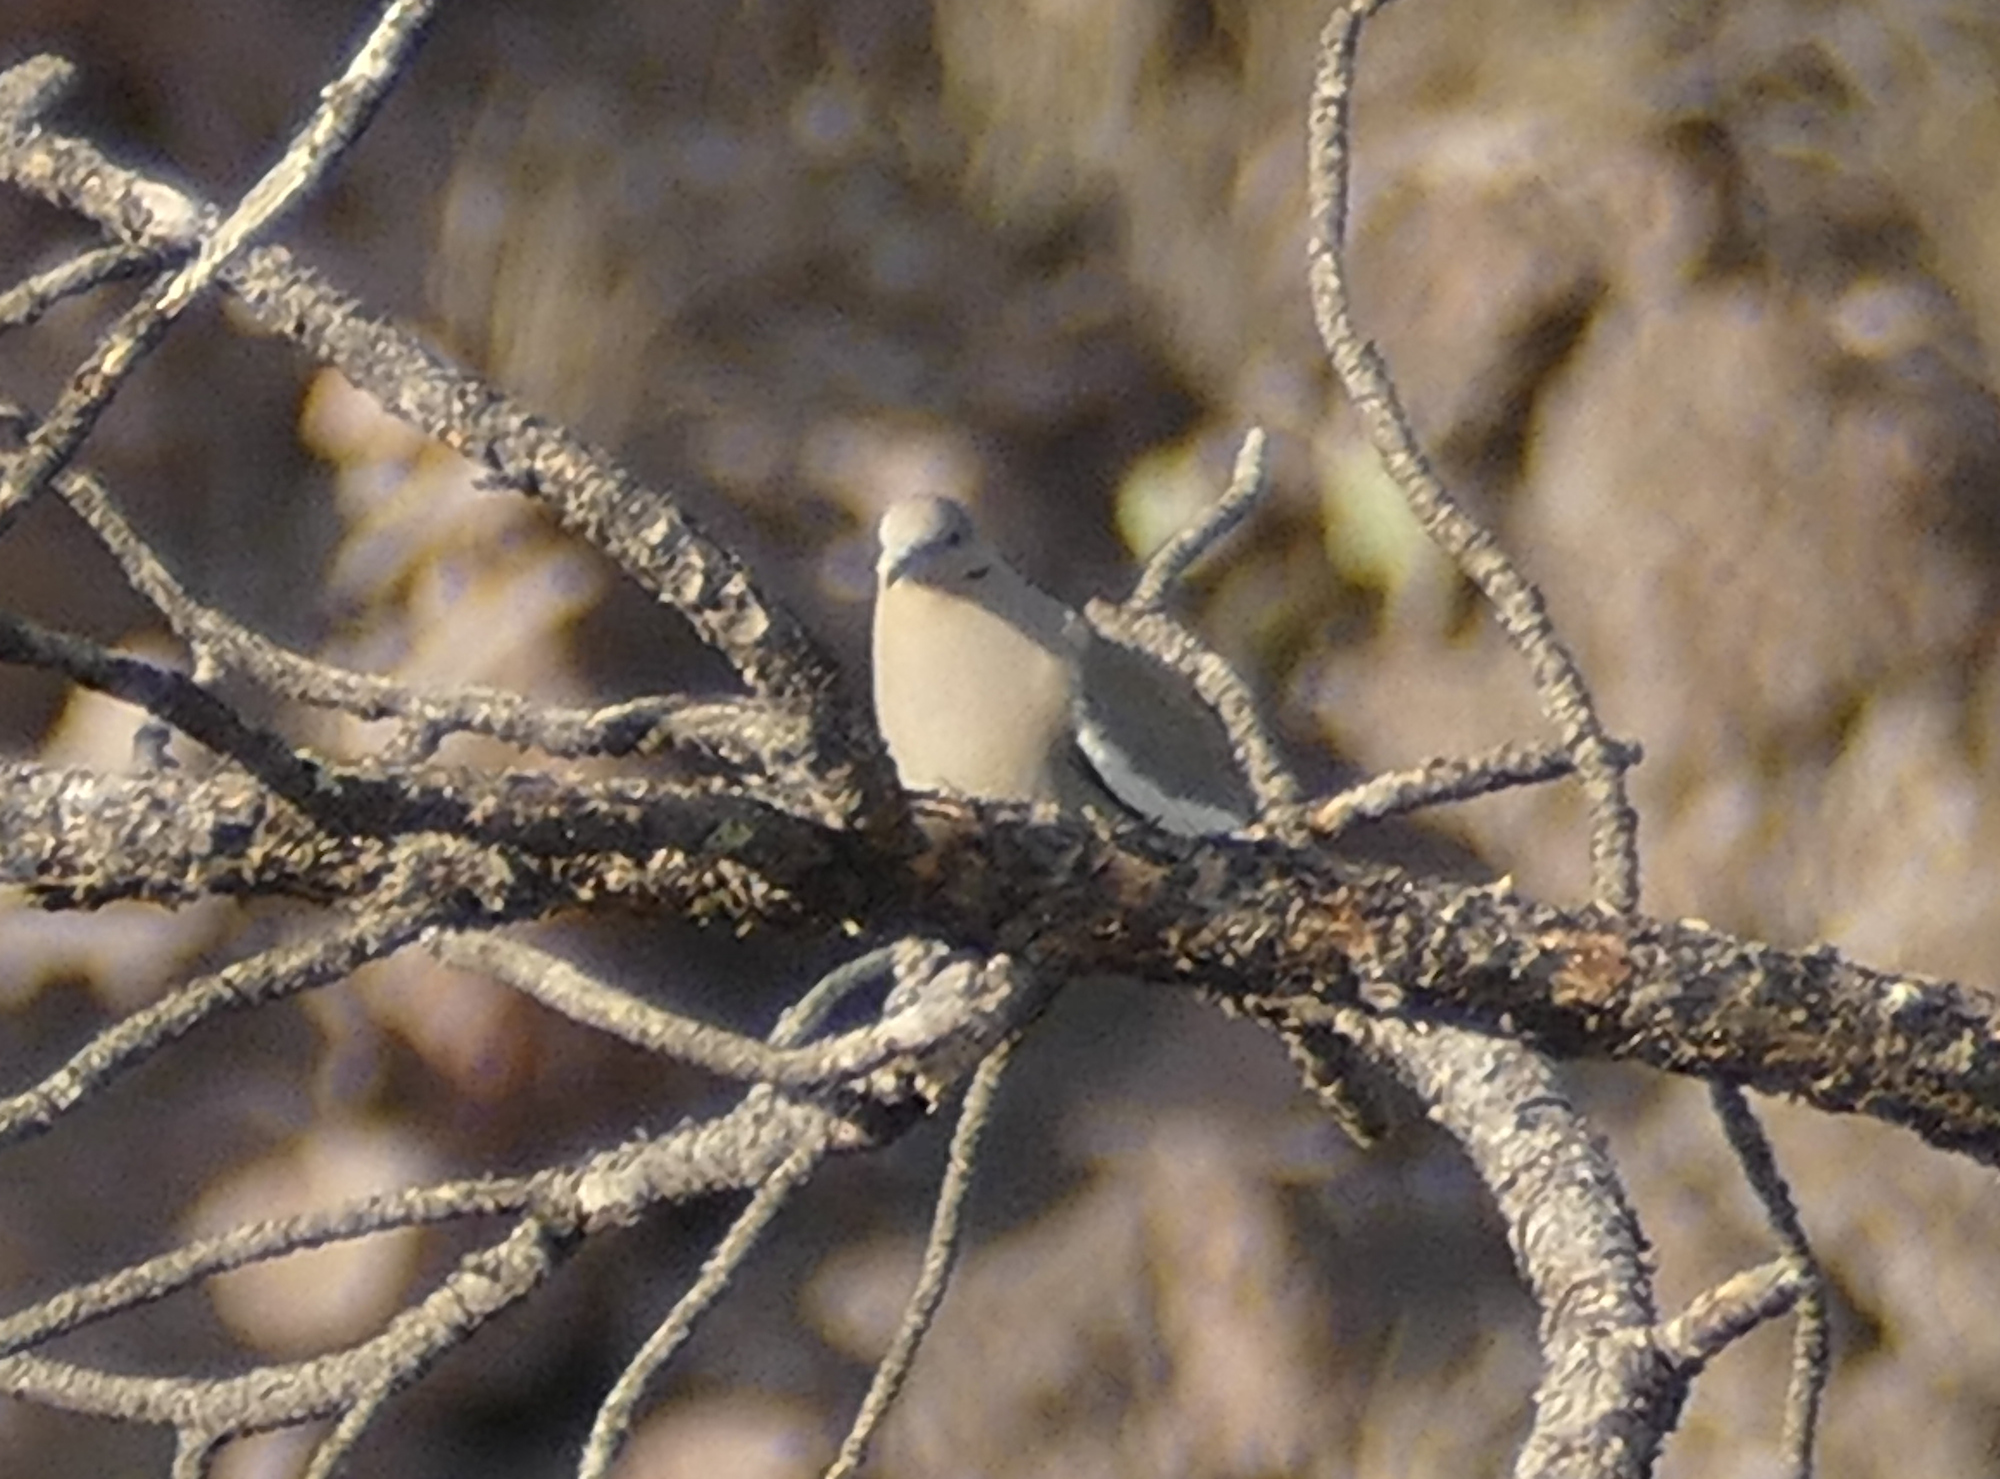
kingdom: Animalia
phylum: Chordata
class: Aves
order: Columbiformes
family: Columbidae
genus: Zenaida
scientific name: Zenaida asiatica
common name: White-winged dove
